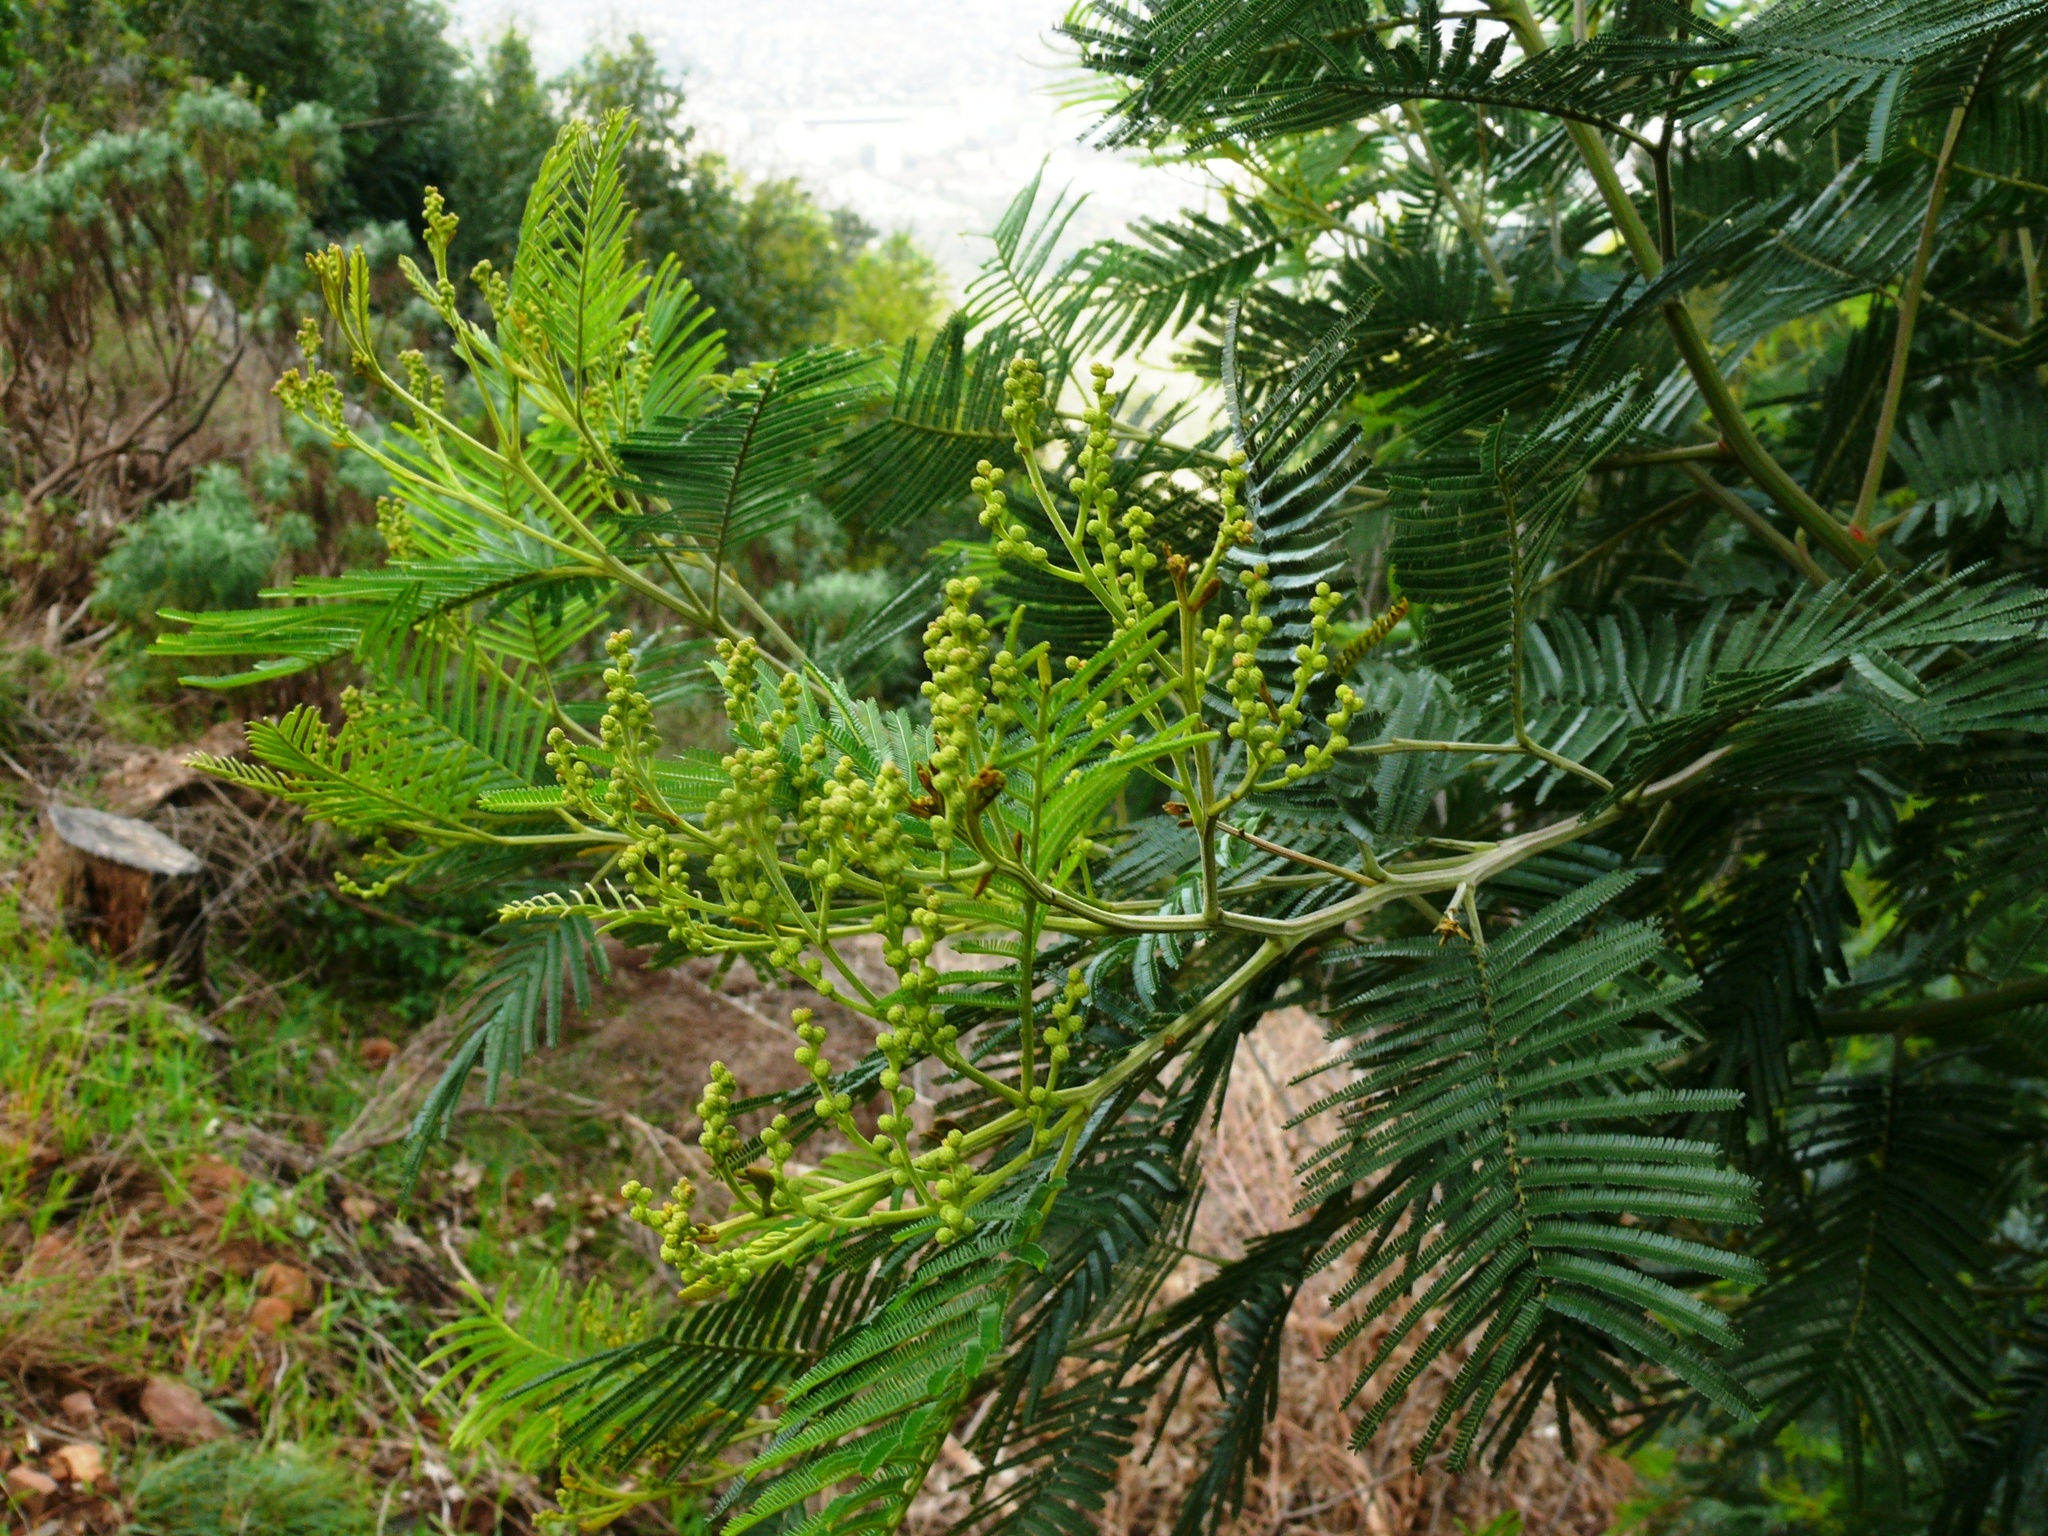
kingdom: Plantae
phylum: Tracheophyta
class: Magnoliopsida
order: Fabales
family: Fabaceae
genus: Acacia
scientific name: Acacia mearnsii
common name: Black wattle
